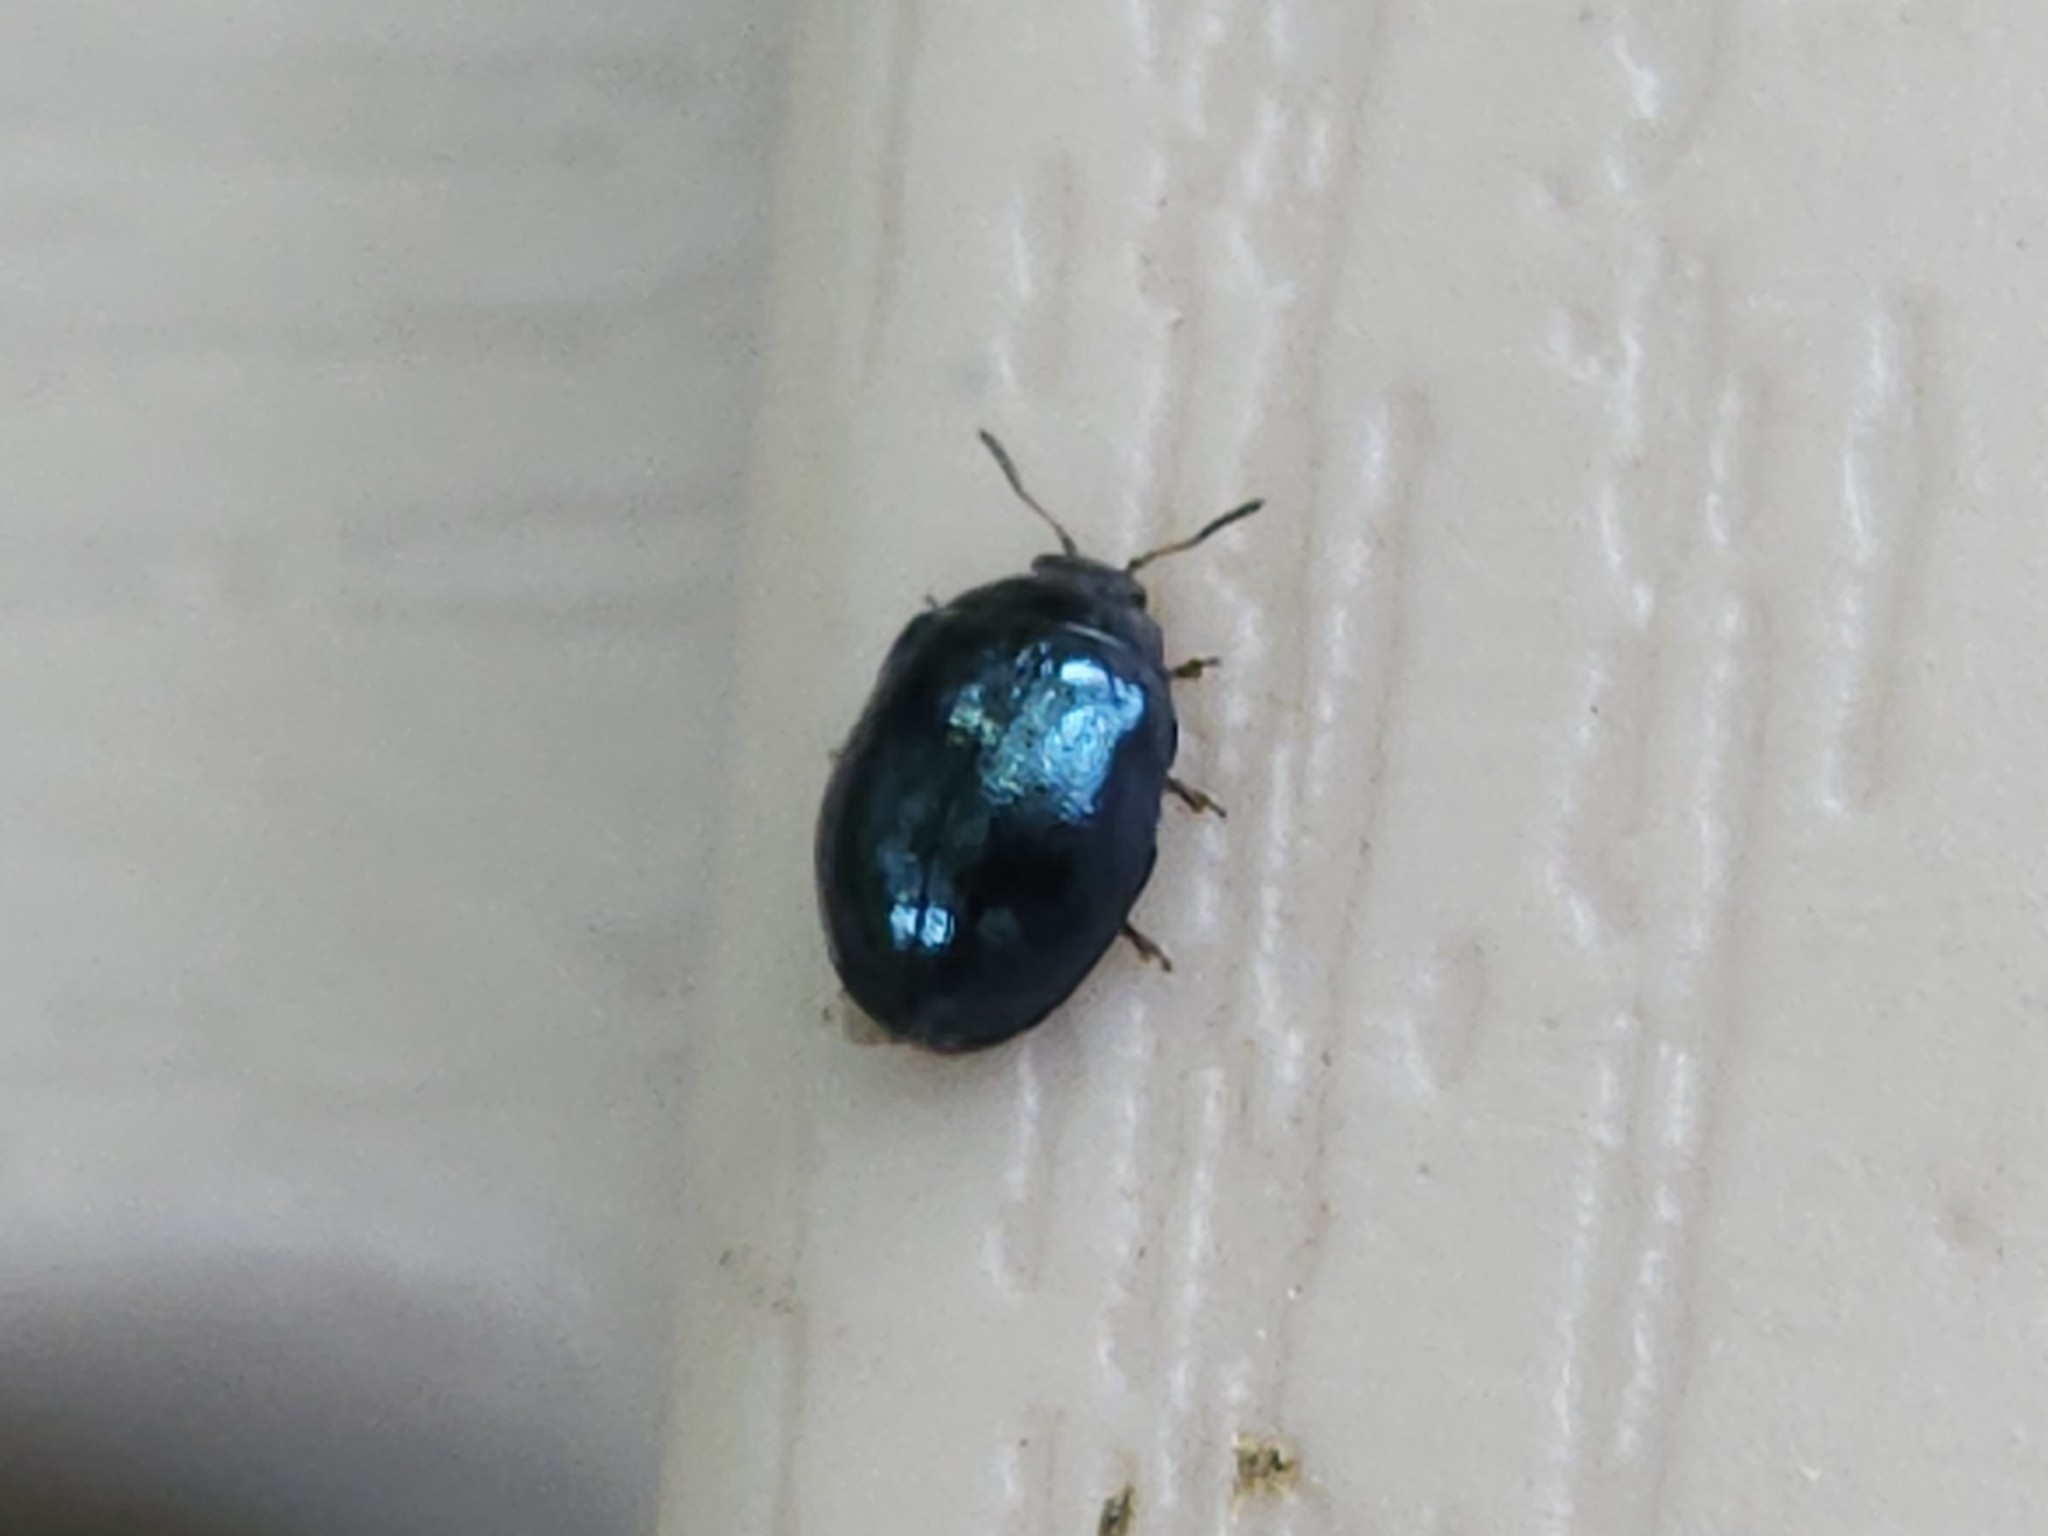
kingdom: Animalia
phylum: Arthropoda
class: Insecta
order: Coleoptera
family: Chrysomelidae
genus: Plagiodera
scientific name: Plagiodera versicolora
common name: Imported willow leaf beetle
